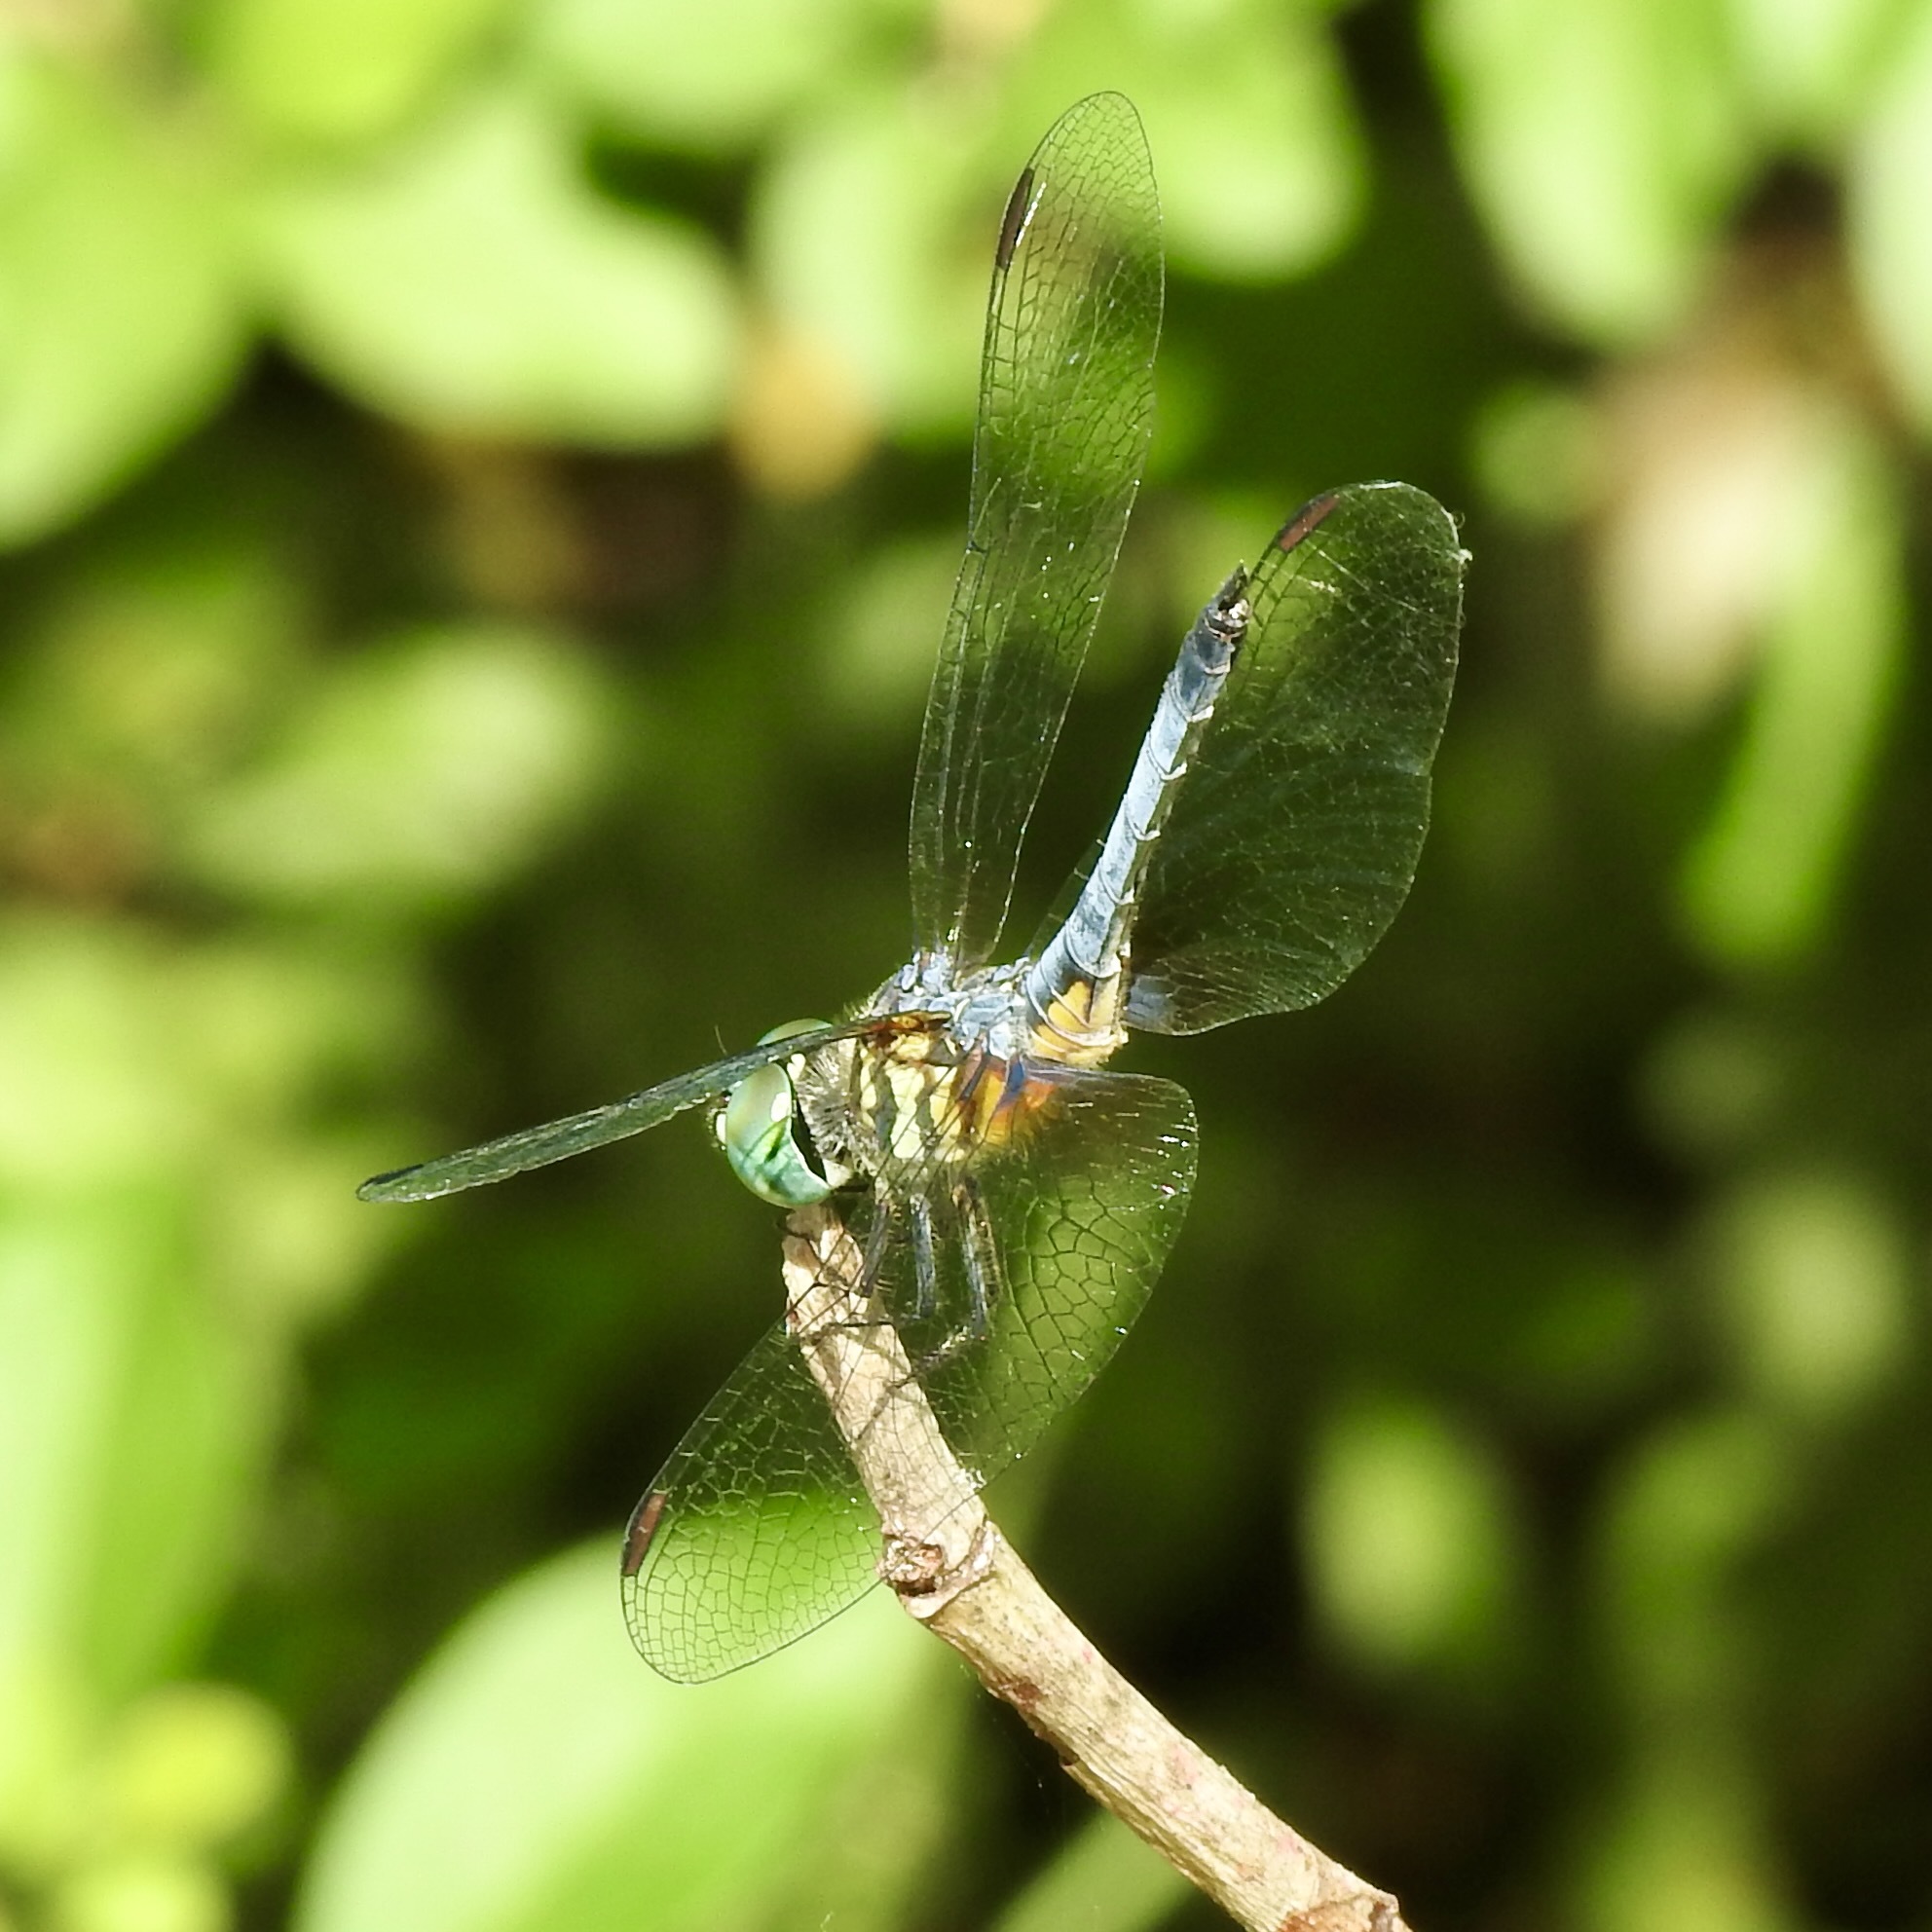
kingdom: Animalia
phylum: Arthropoda
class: Insecta
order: Odonata
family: Libellulidae
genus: Pachydiplax
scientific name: Pachydiplax longipennis
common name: Blue dasher
